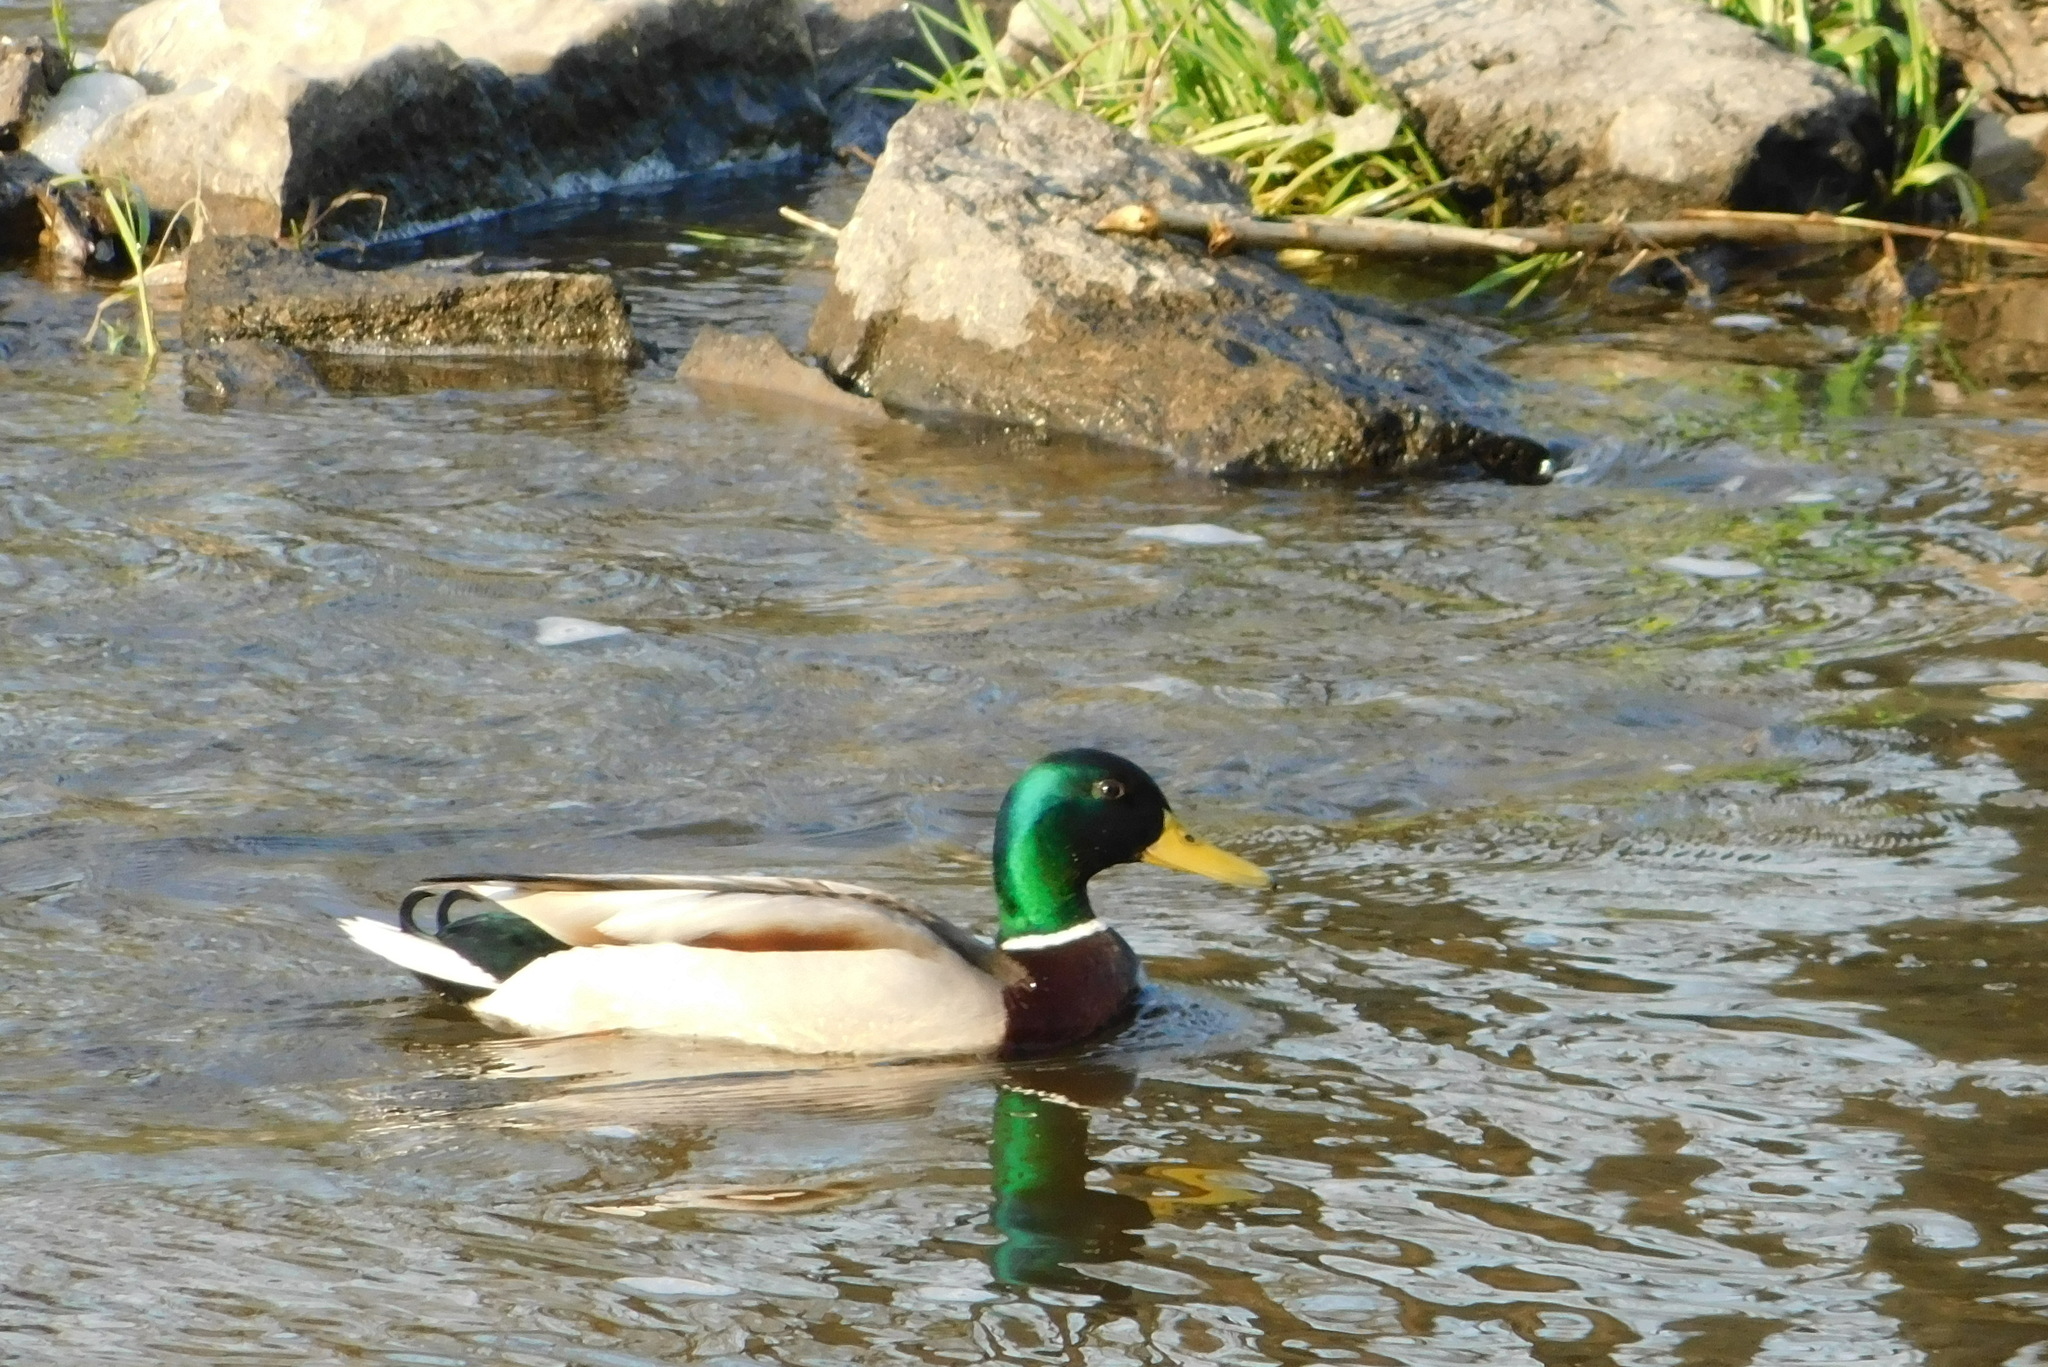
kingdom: Animalia
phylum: Chordata
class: Aves
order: Anseriformes
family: Anatidae
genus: Anas
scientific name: Anas platyrhynchos
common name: Mallard
